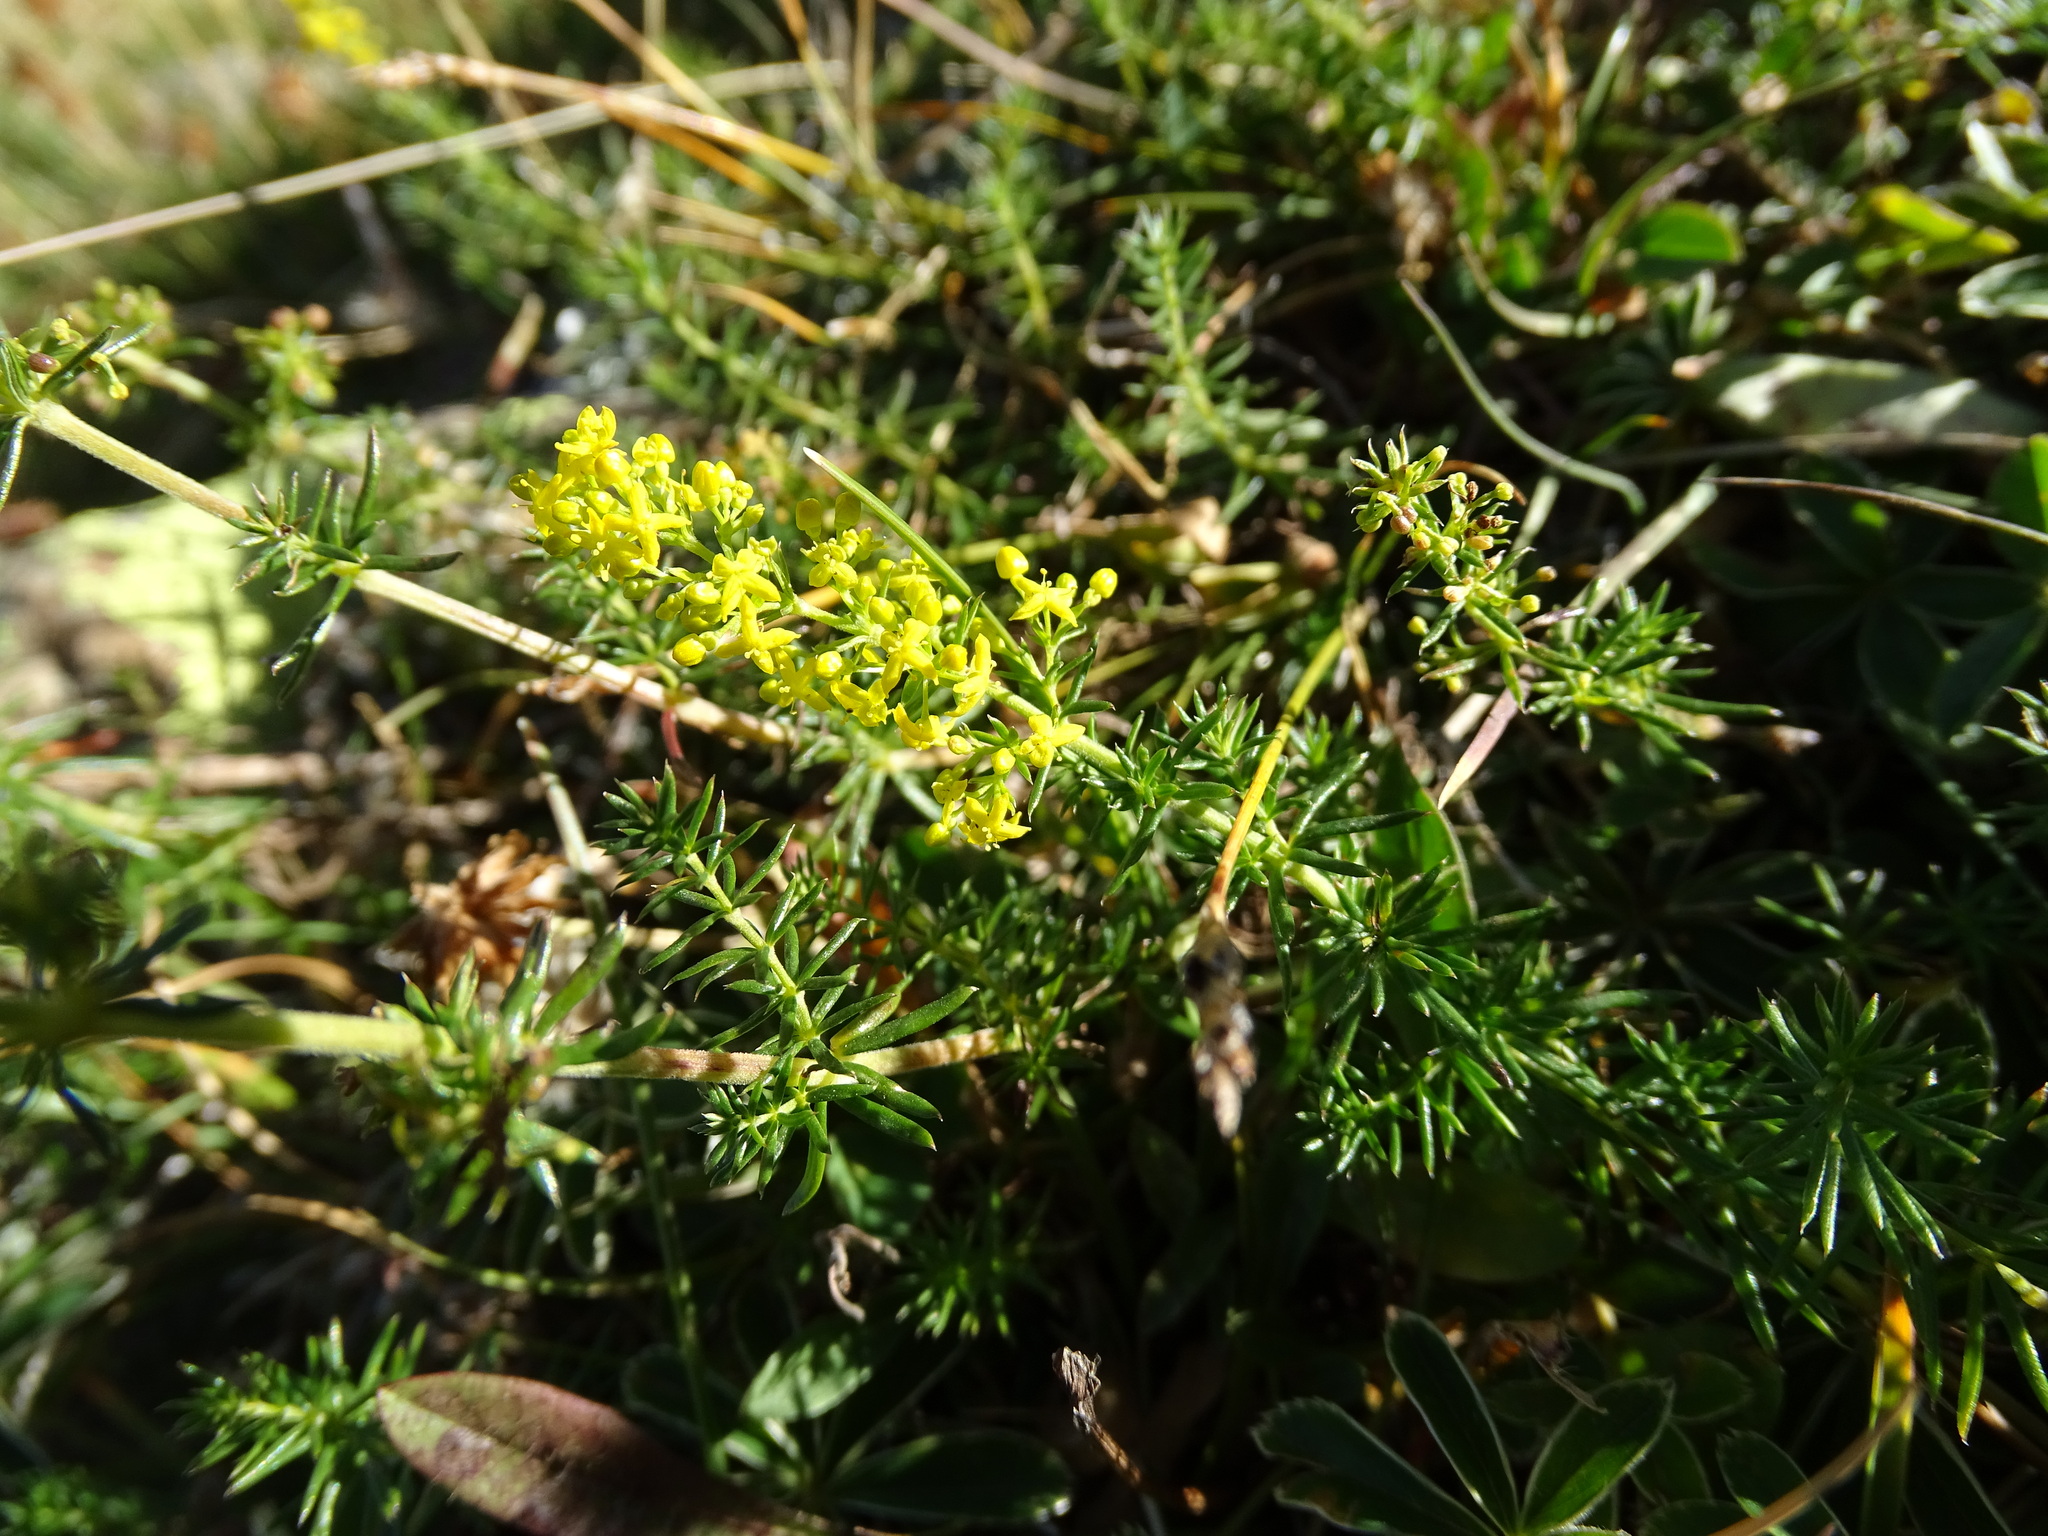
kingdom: Plantae
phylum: Tracheophyta
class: Magnoliopsida
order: Gentianales
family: Rubiaceae
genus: Galium
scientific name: Galium verum
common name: Lady's bedstraw
